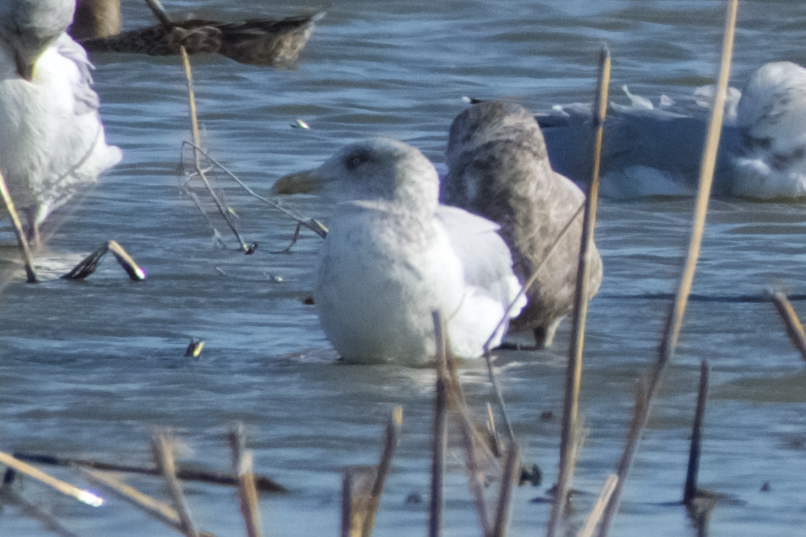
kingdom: Animalia
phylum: Chordata
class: Aves
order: Charadriiformes
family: Laridae
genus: Larus
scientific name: Larus argentatus
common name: Herring gull
